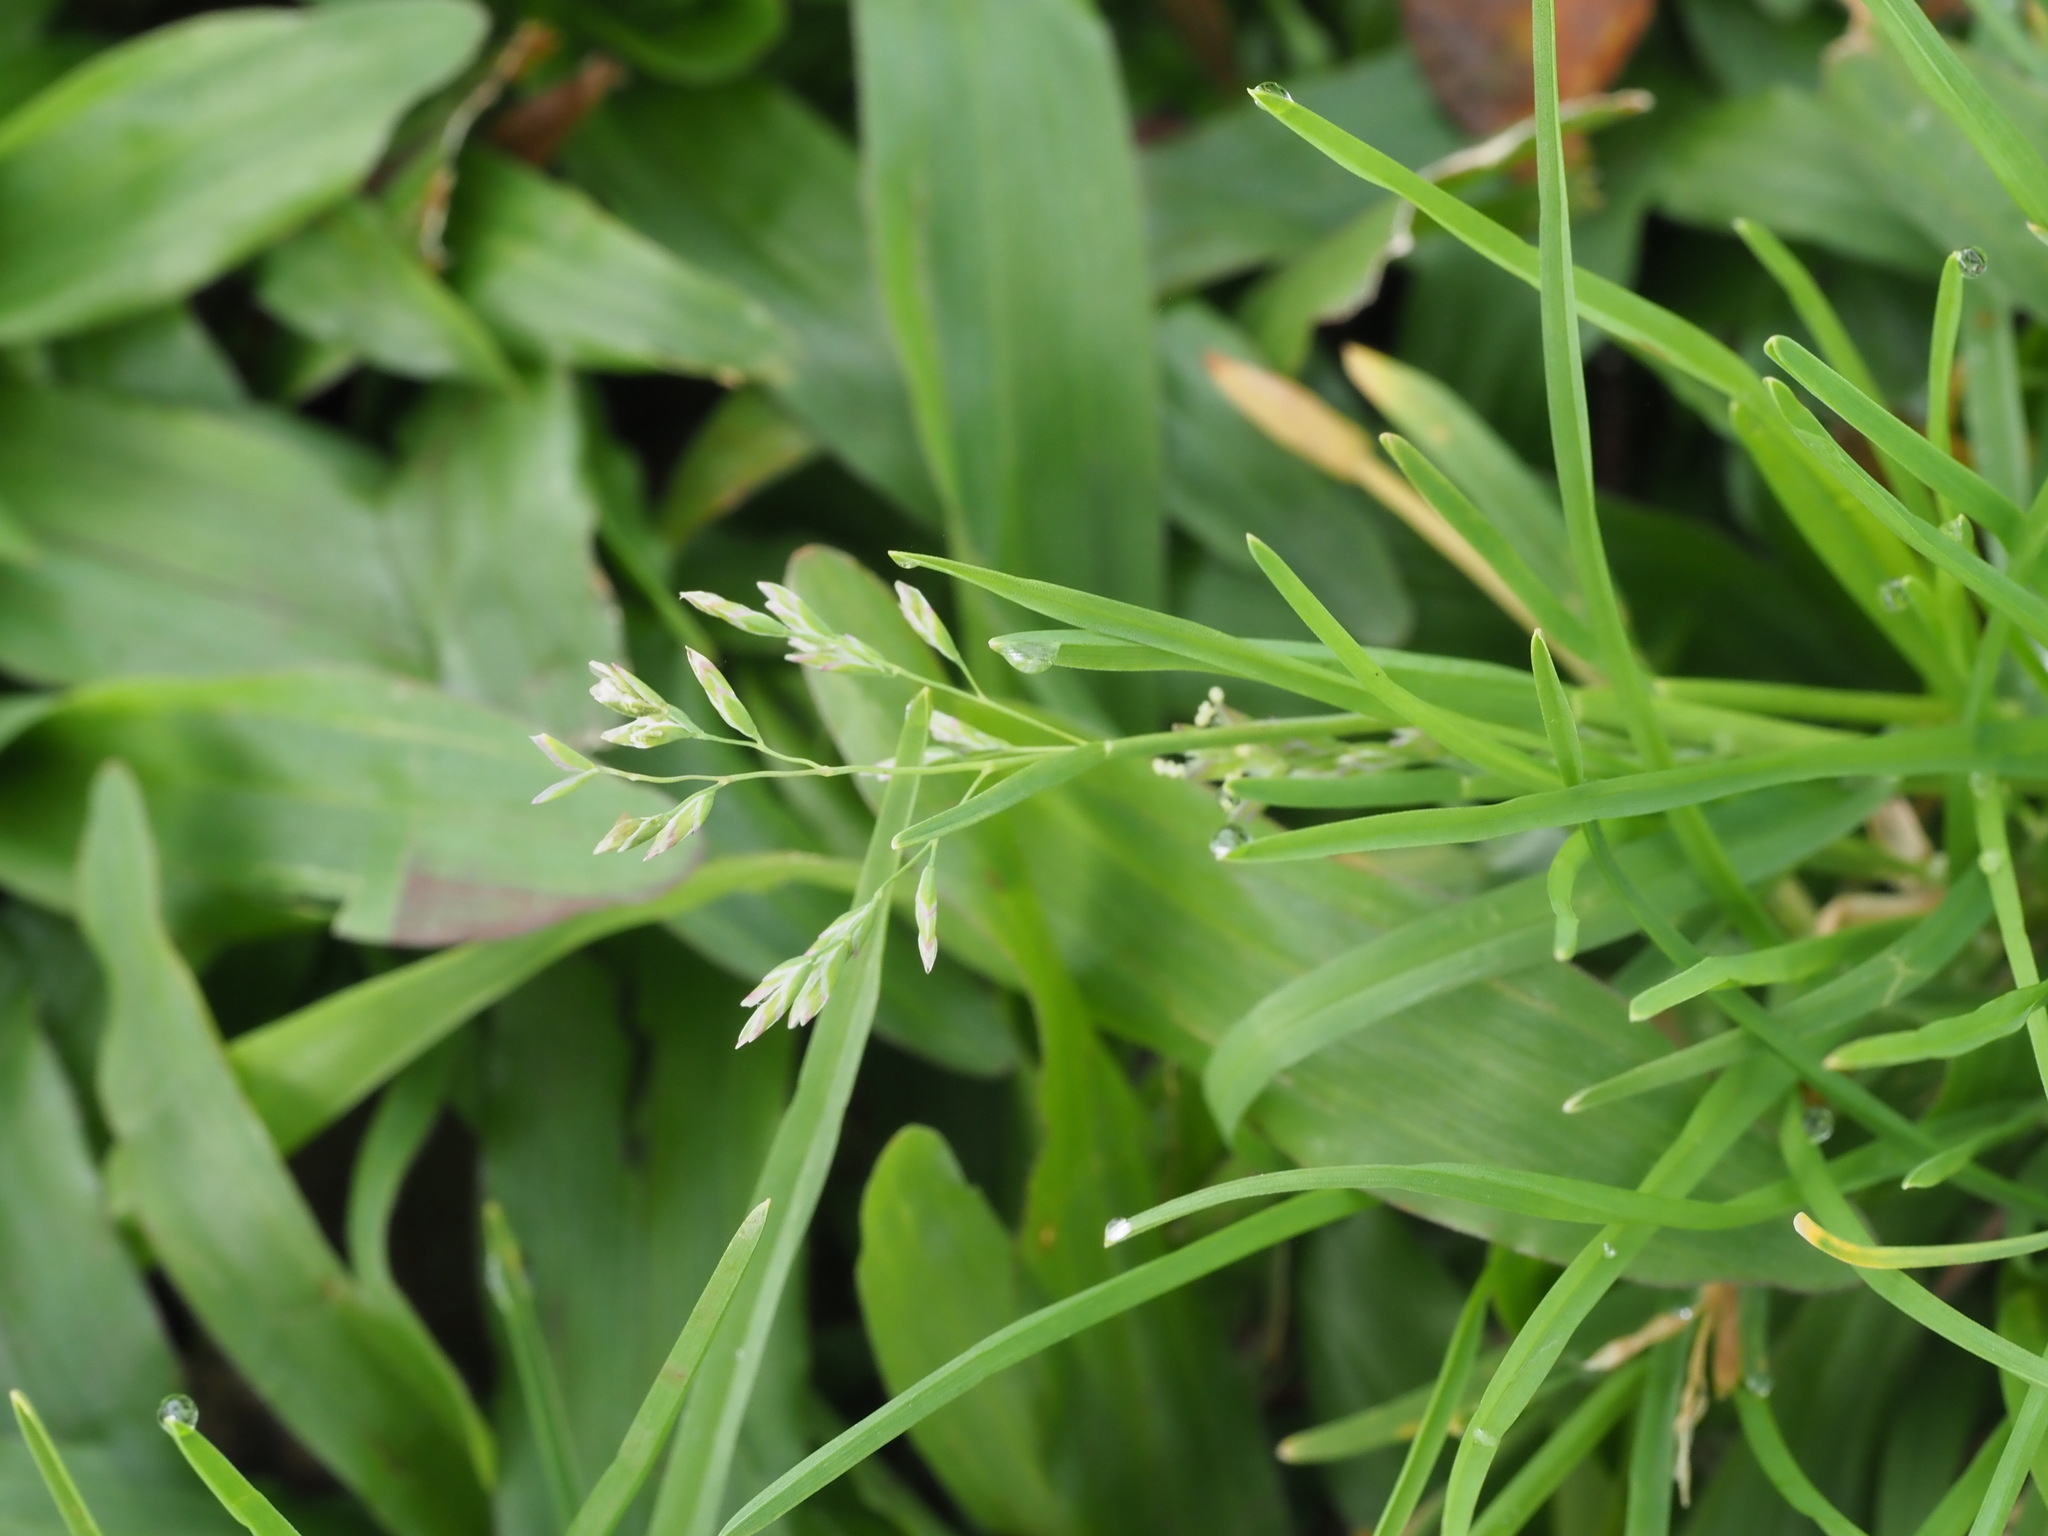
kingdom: Plantae
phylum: Tracheophyta
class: Liliopsida
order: Poales
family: Poaceae
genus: Poa
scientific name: Poa annua
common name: Annual bluegrass
